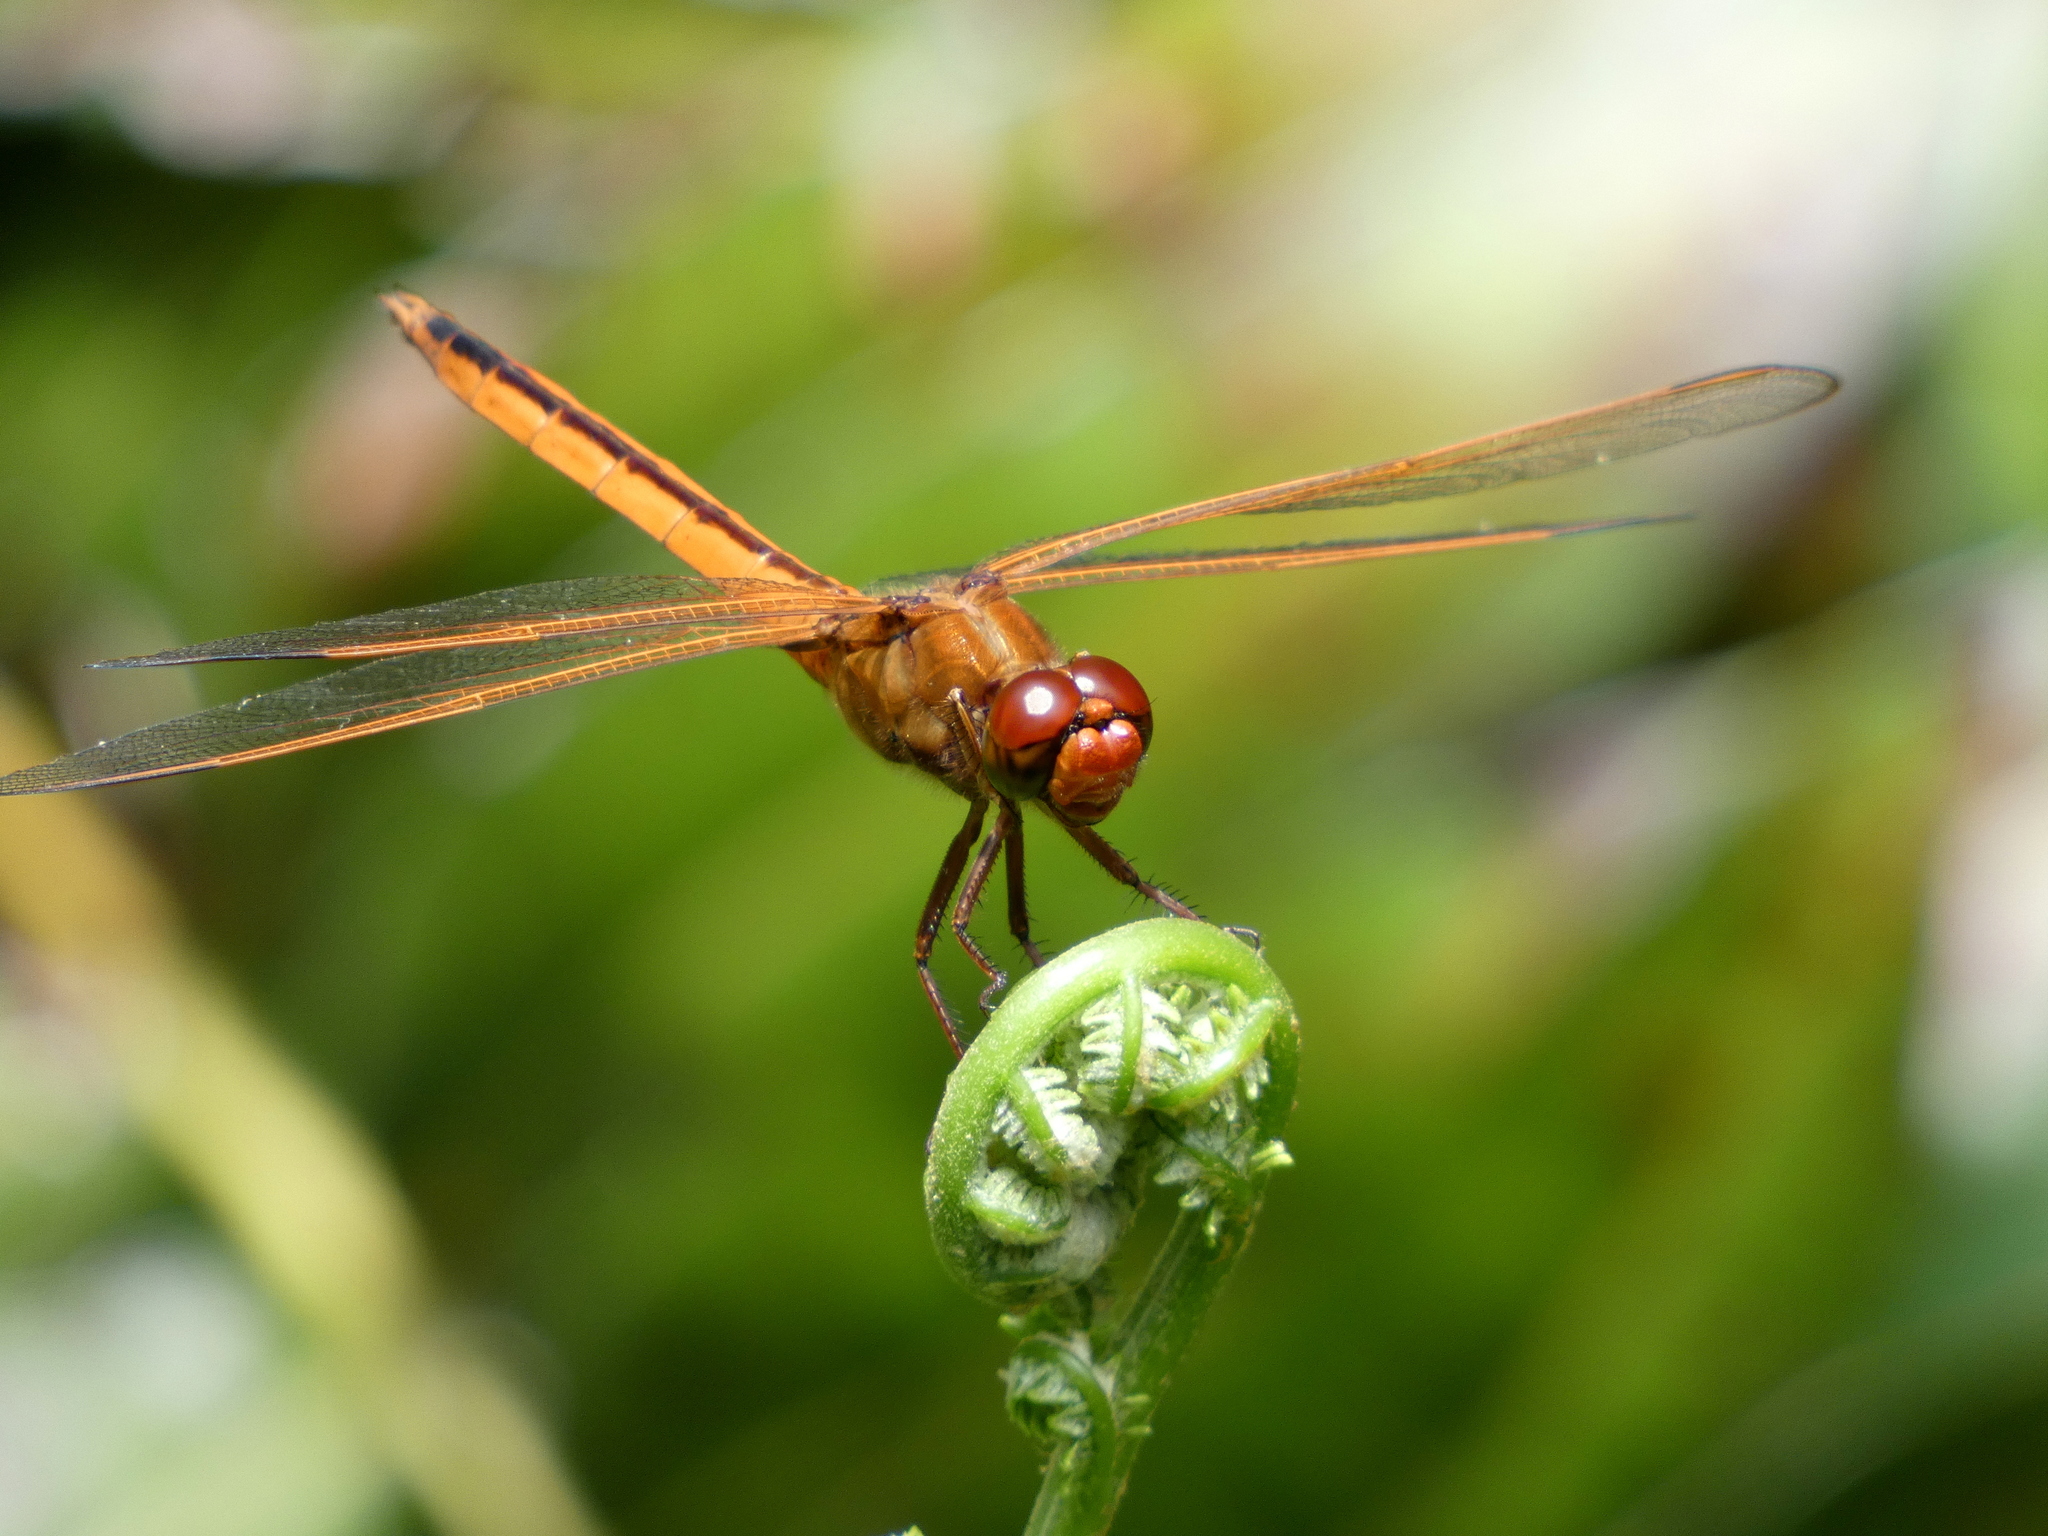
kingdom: Animalia
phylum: Arthropoda
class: Insecta
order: Odonata
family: Libellulidae
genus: Libellula
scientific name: Libellula needhami
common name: Needham's skimmer
